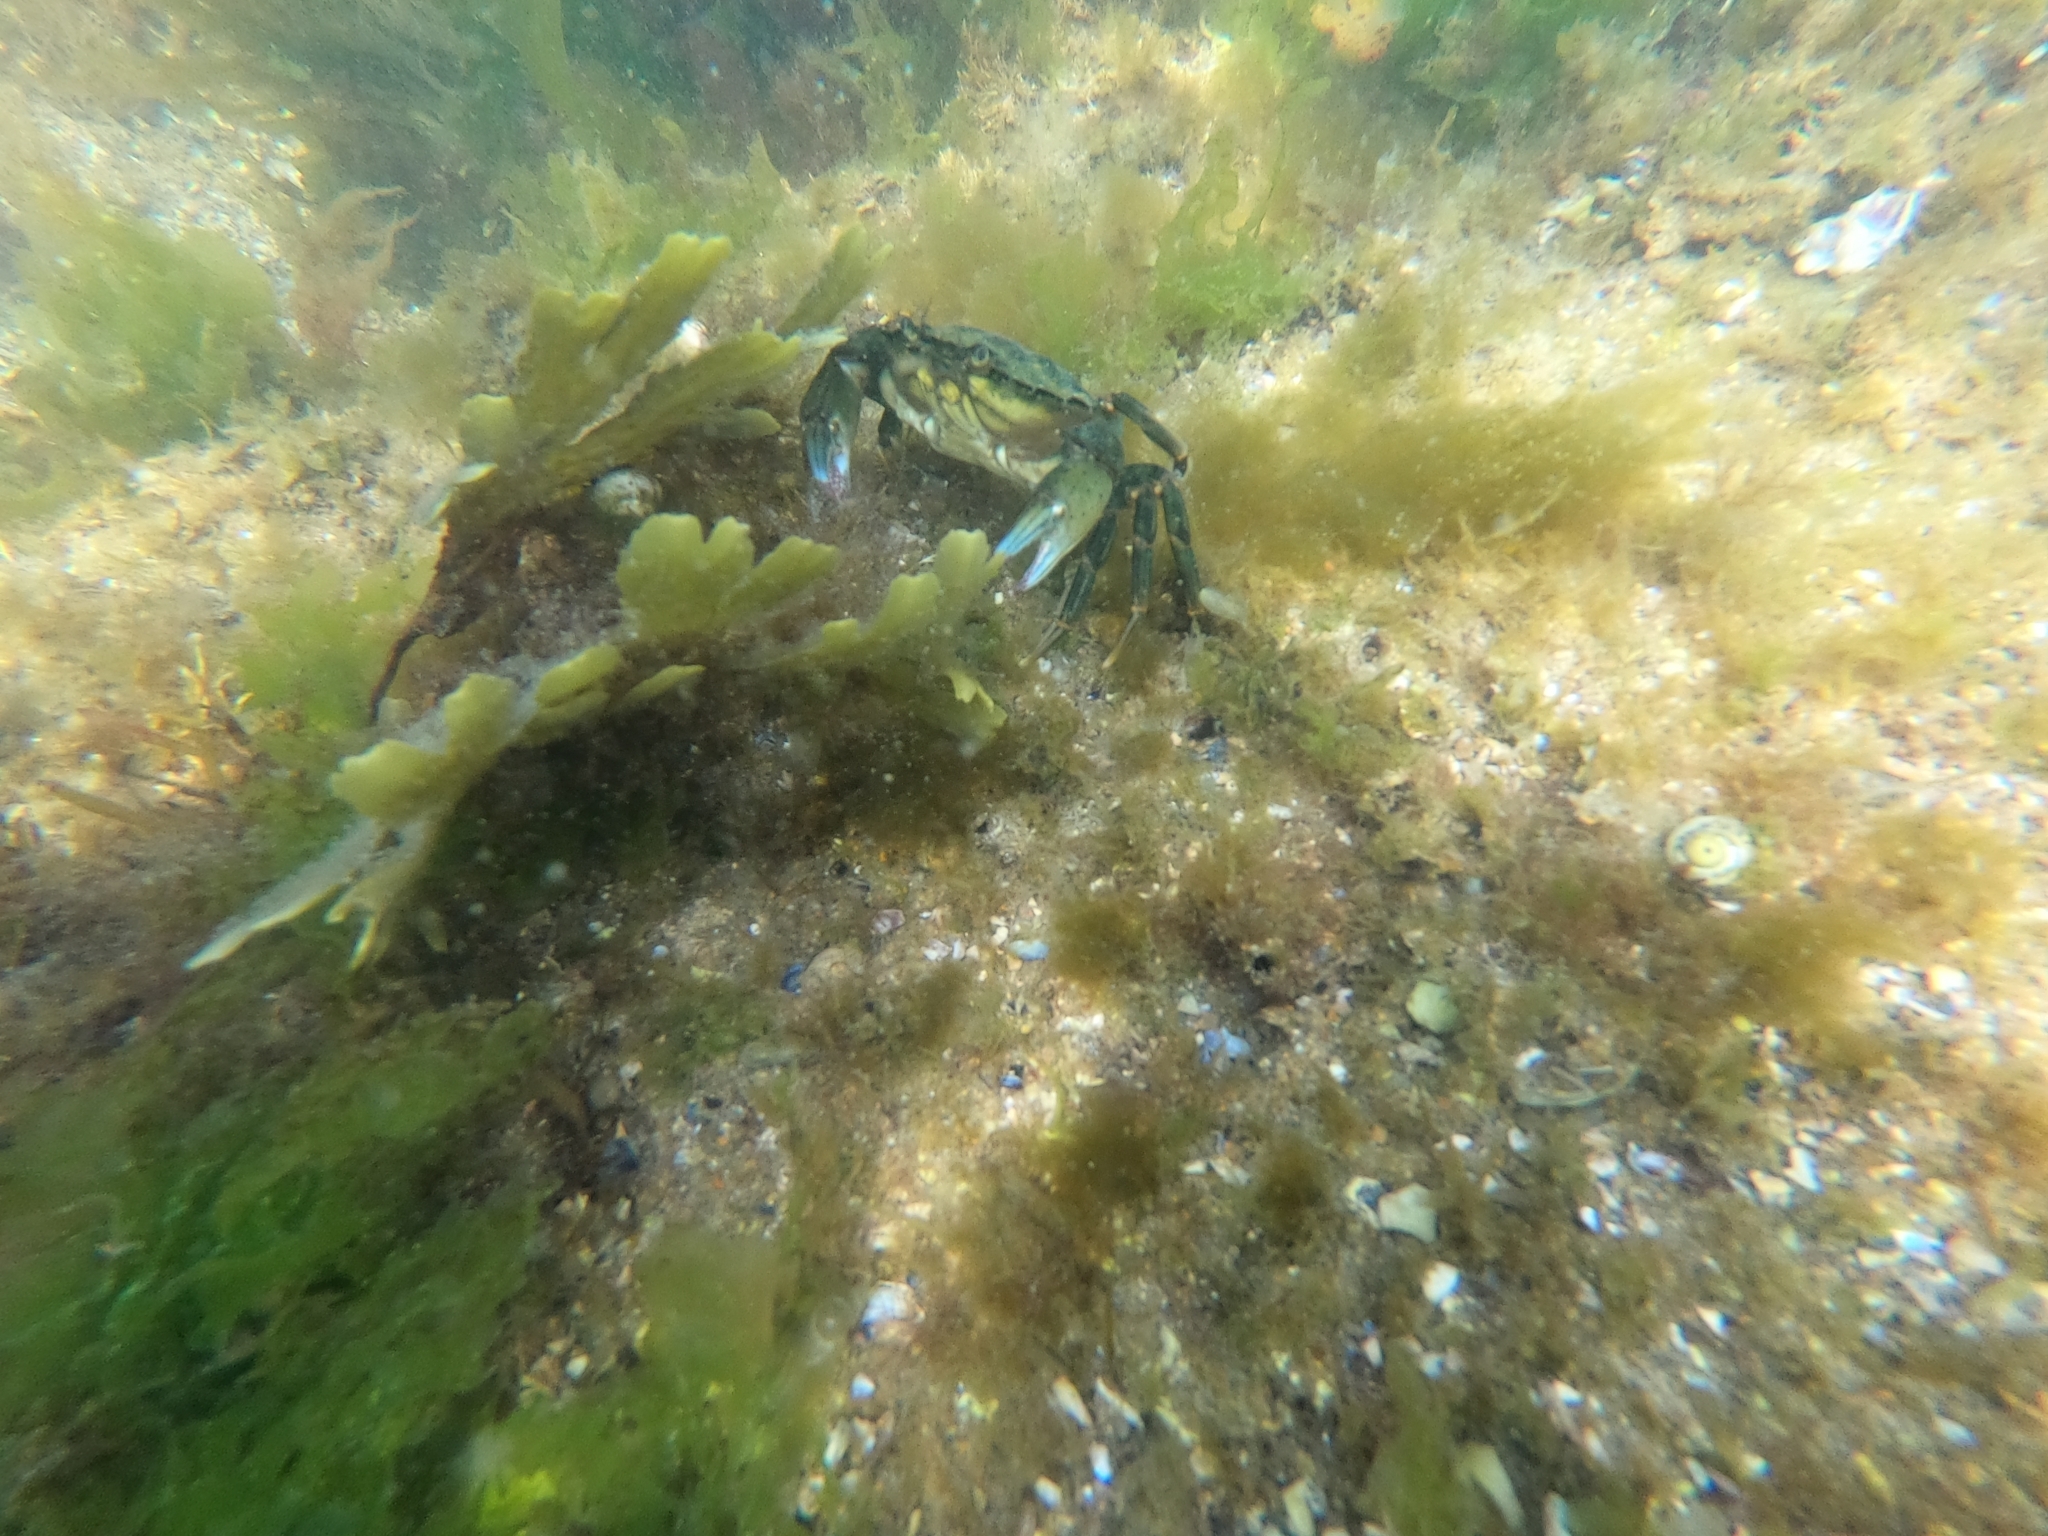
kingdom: Animalia
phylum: Arthropoda
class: Malacostraca
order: Decapoda
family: Carcinidae
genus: Carcinus
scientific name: Carcinus maenas
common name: European green crab
